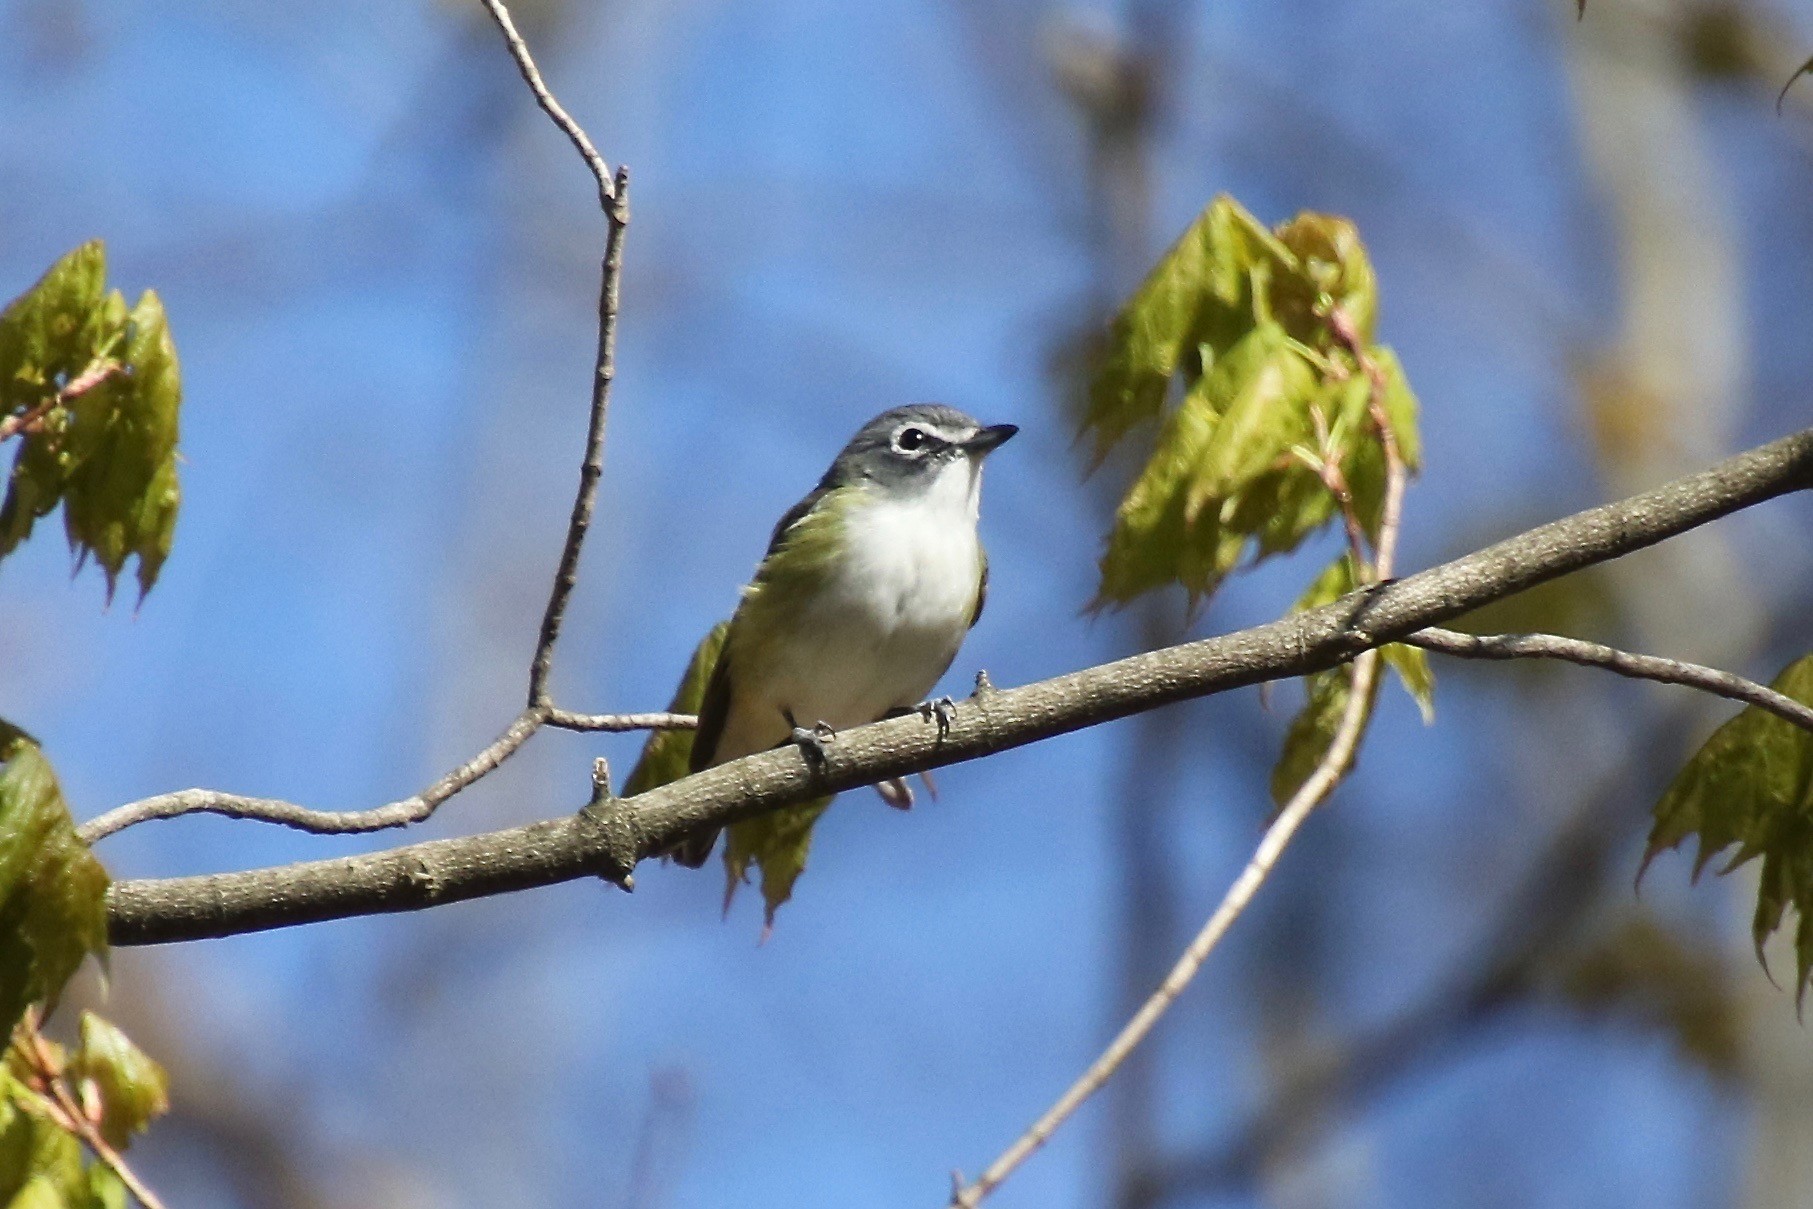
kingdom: Animalia
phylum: Chordata
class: Aves
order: Passeriformes
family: Vireonidae
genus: Vireo
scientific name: Vireo solitarius
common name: Blue-headed vireo
